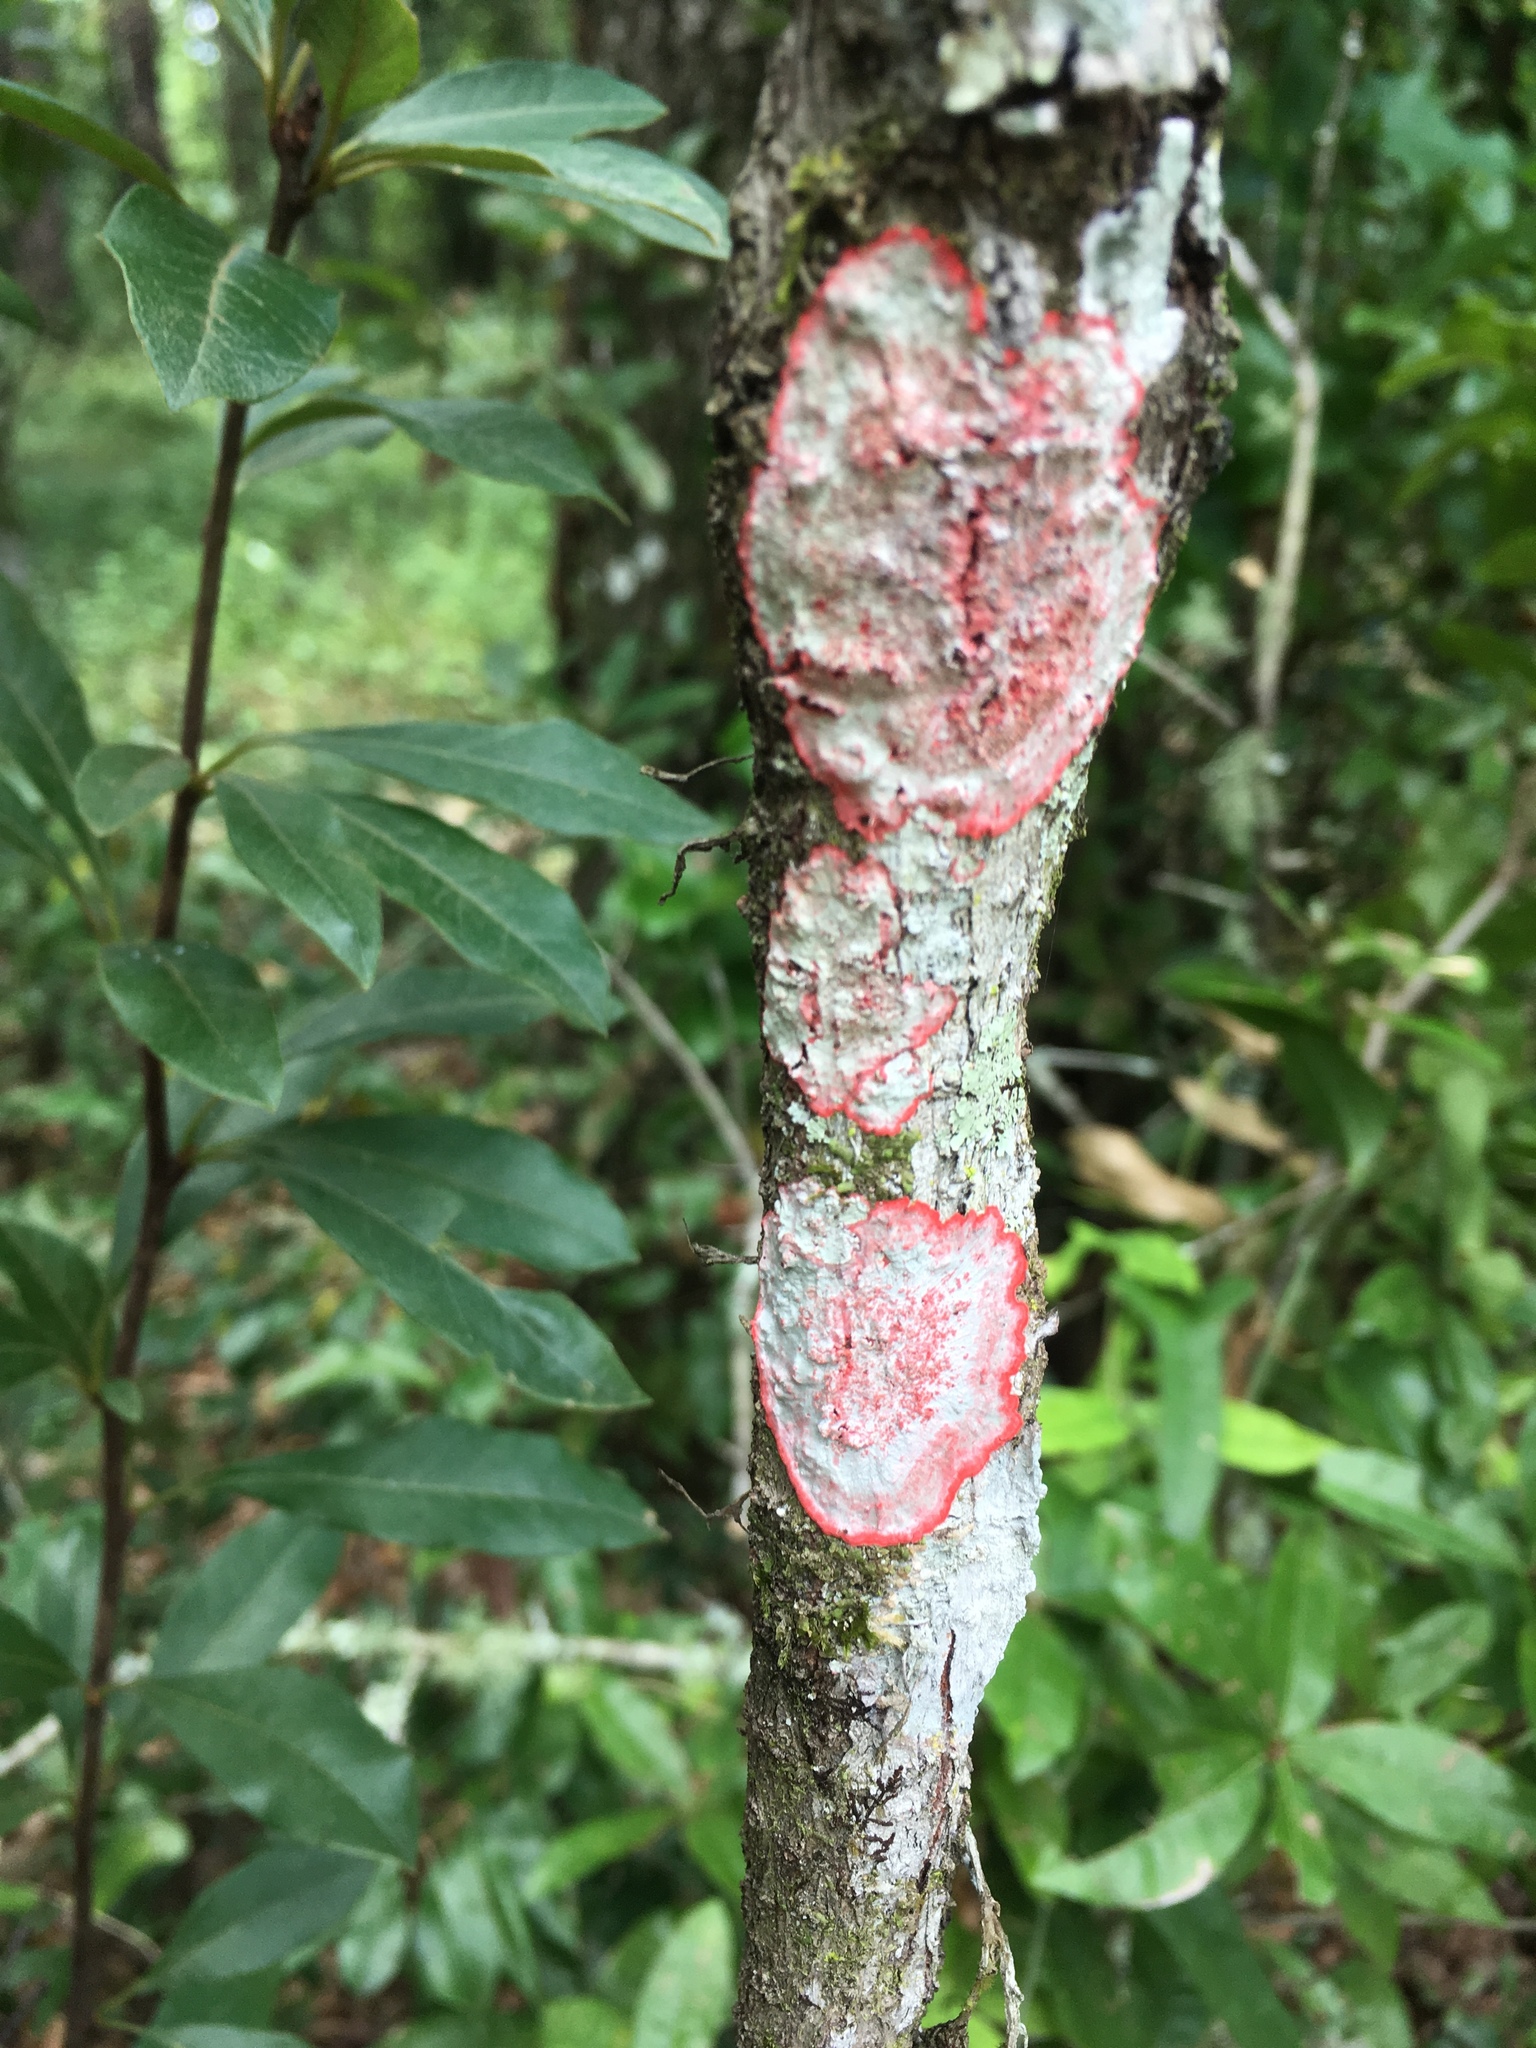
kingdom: Fungi
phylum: Ascomycota
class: Arthoniomycetes
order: Arthoniales
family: Arthoniaceae
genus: Herpothallon
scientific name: Herpothallon rubrocinctum
